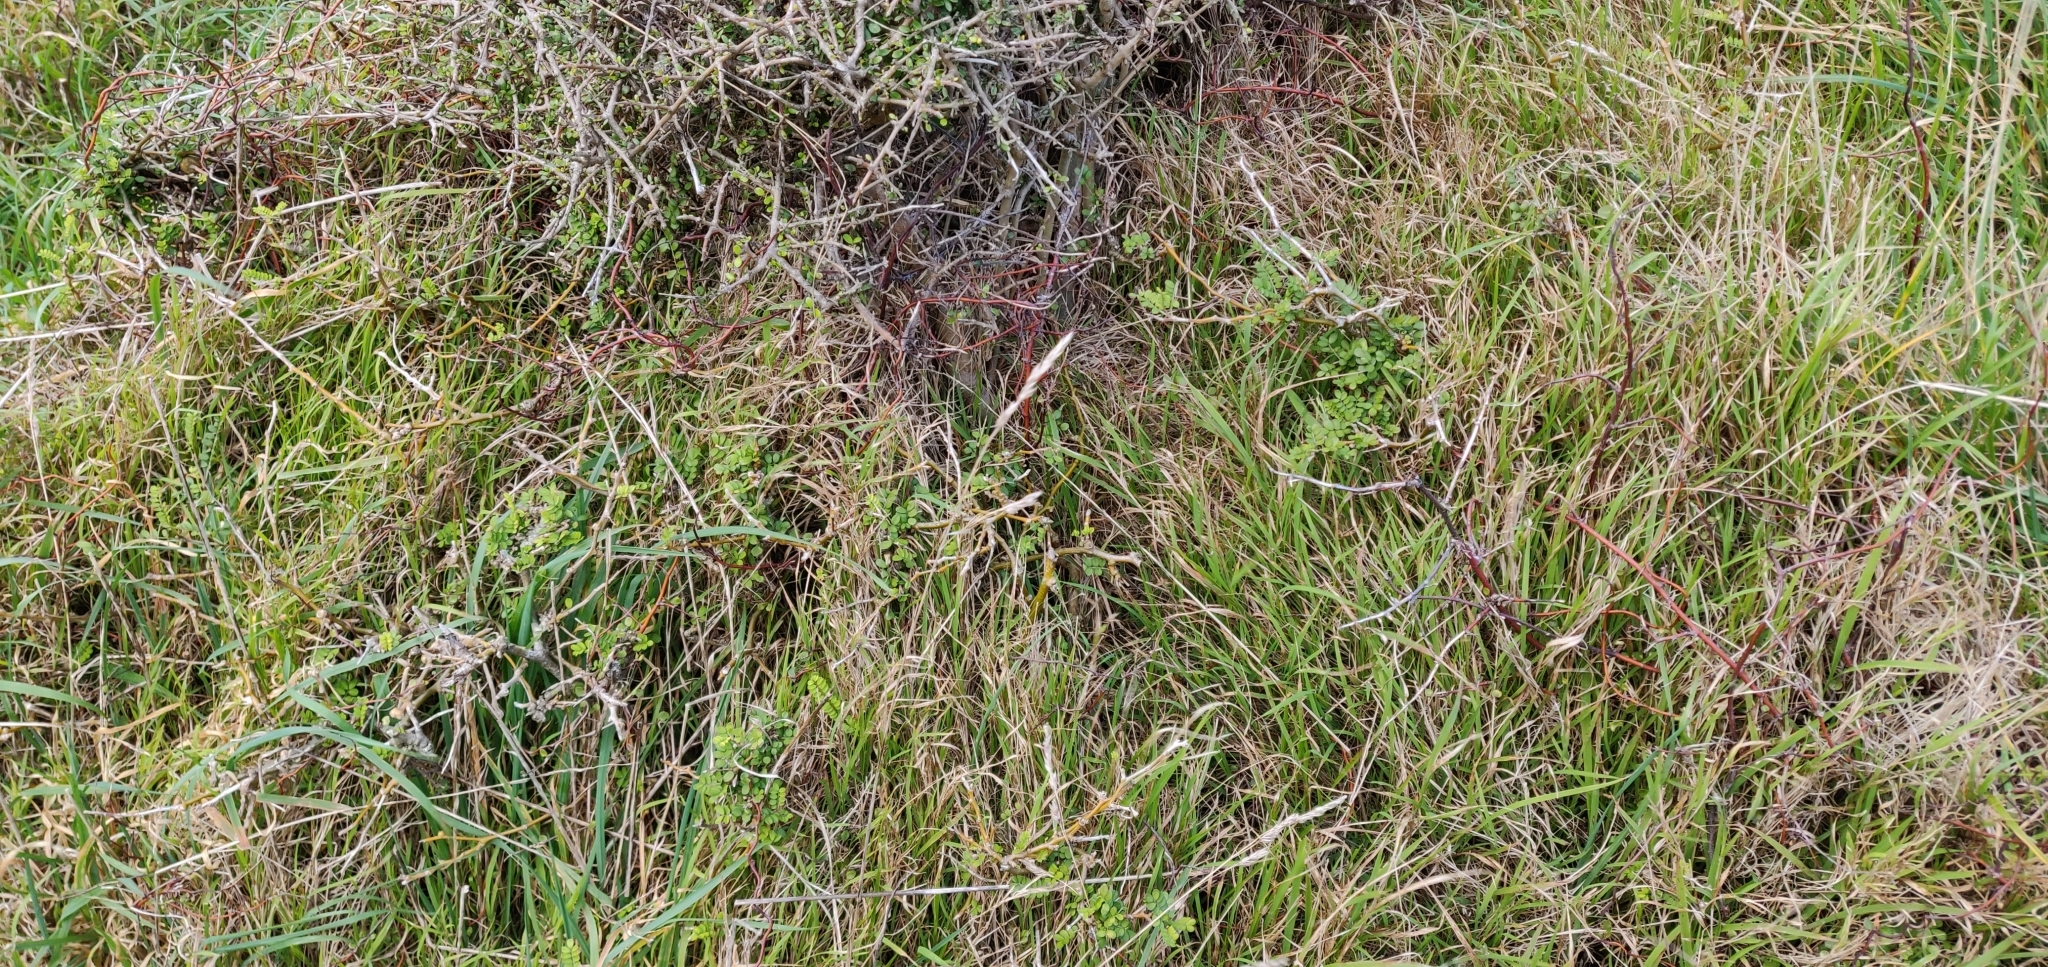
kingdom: Plantae
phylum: Tracheophyta
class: Magnoliopsida
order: Fabales
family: Fabaceae
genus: Sophora
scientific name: Sophora molloyi
